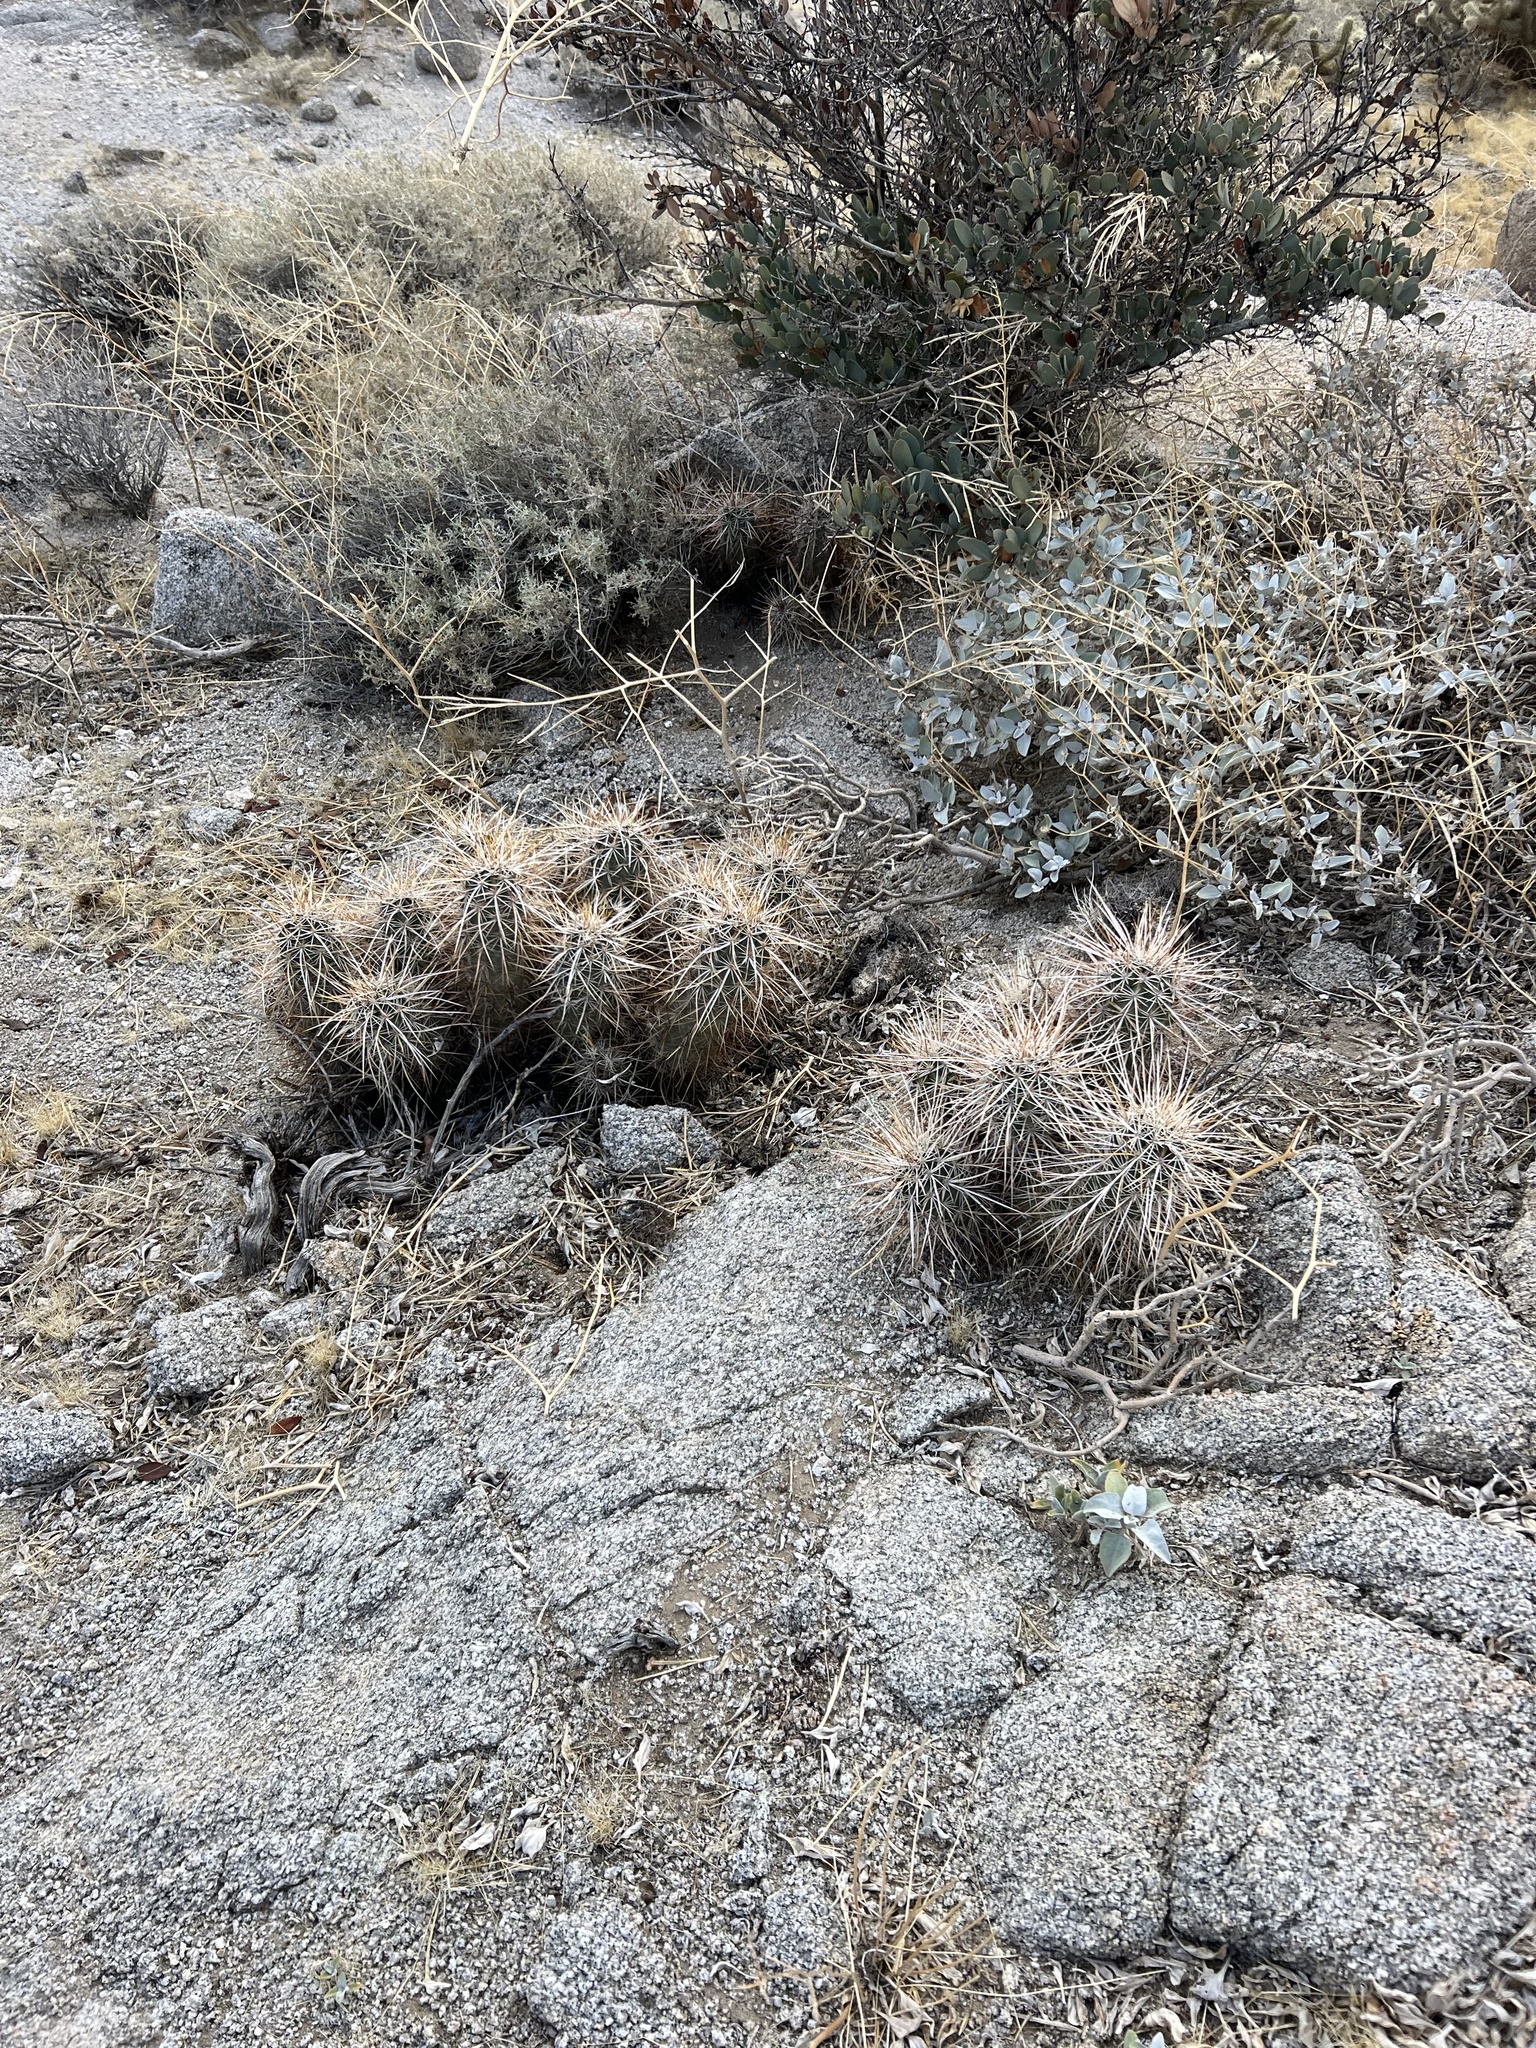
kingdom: Plantae
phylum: Tracheophyta
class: Magnoliopsida
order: Caryophyllales
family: Cactaceae
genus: Echinocereus
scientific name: Echinocereus engelmannii
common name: Engelmann's hedgehog cactus
